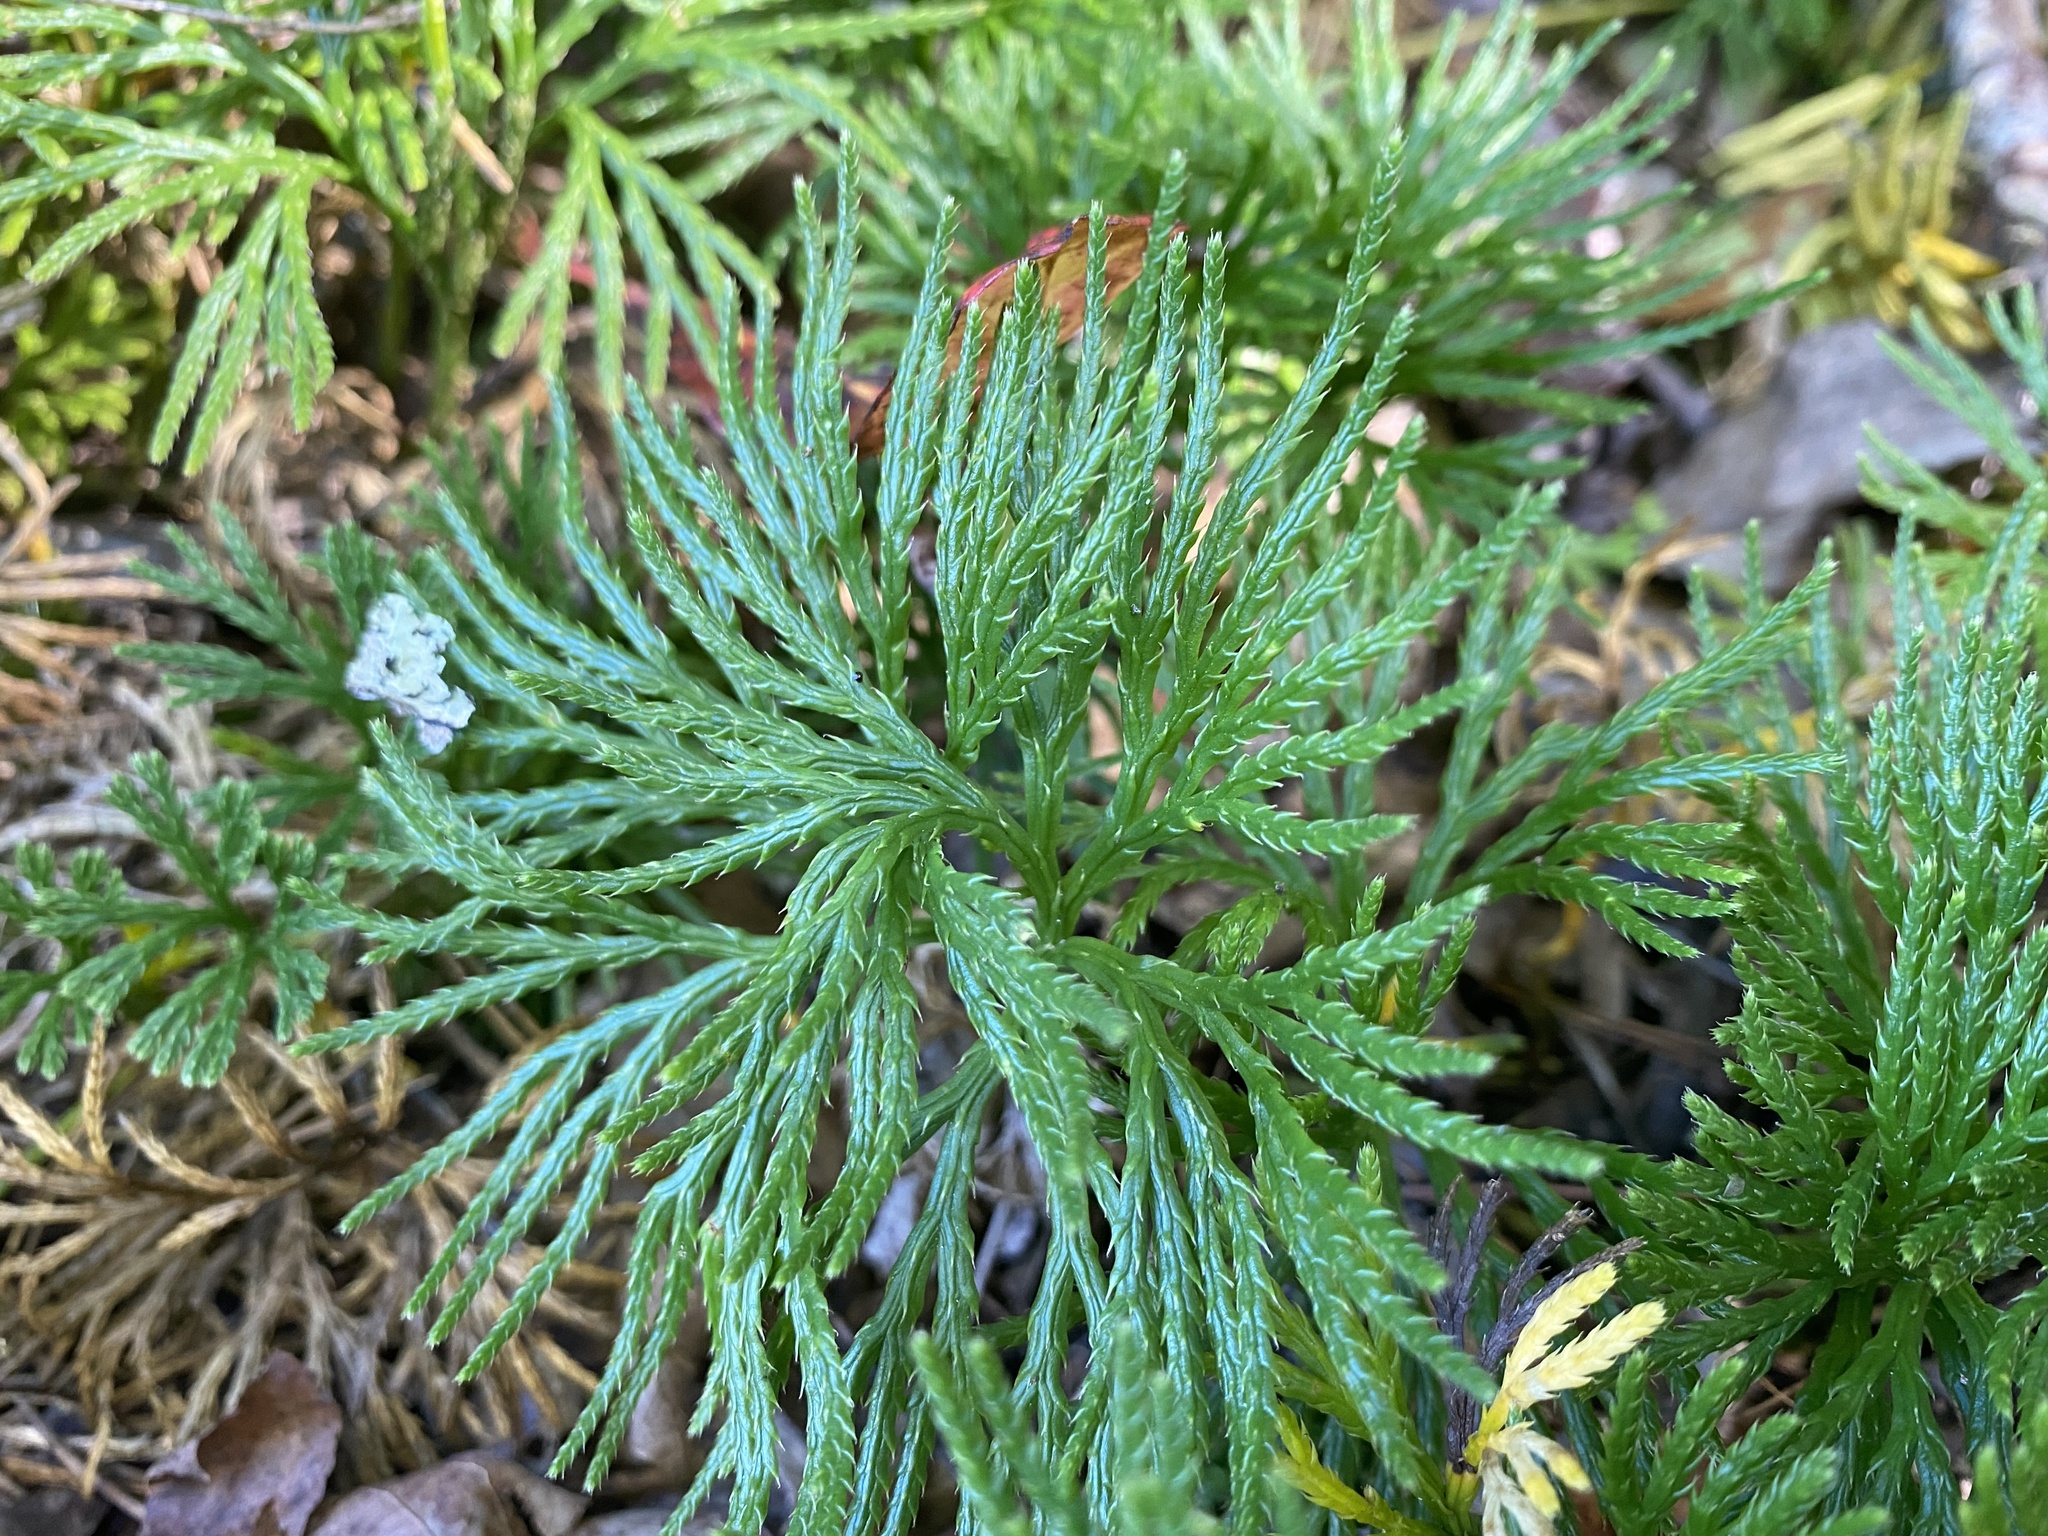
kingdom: Plantae
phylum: Tracheophyta
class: Lycopodiopsida
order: Lycopodiales
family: Lycopodiaceae
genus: Diphasiastrum
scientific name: Diphasiastrum digitatum
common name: Southern running-pine
